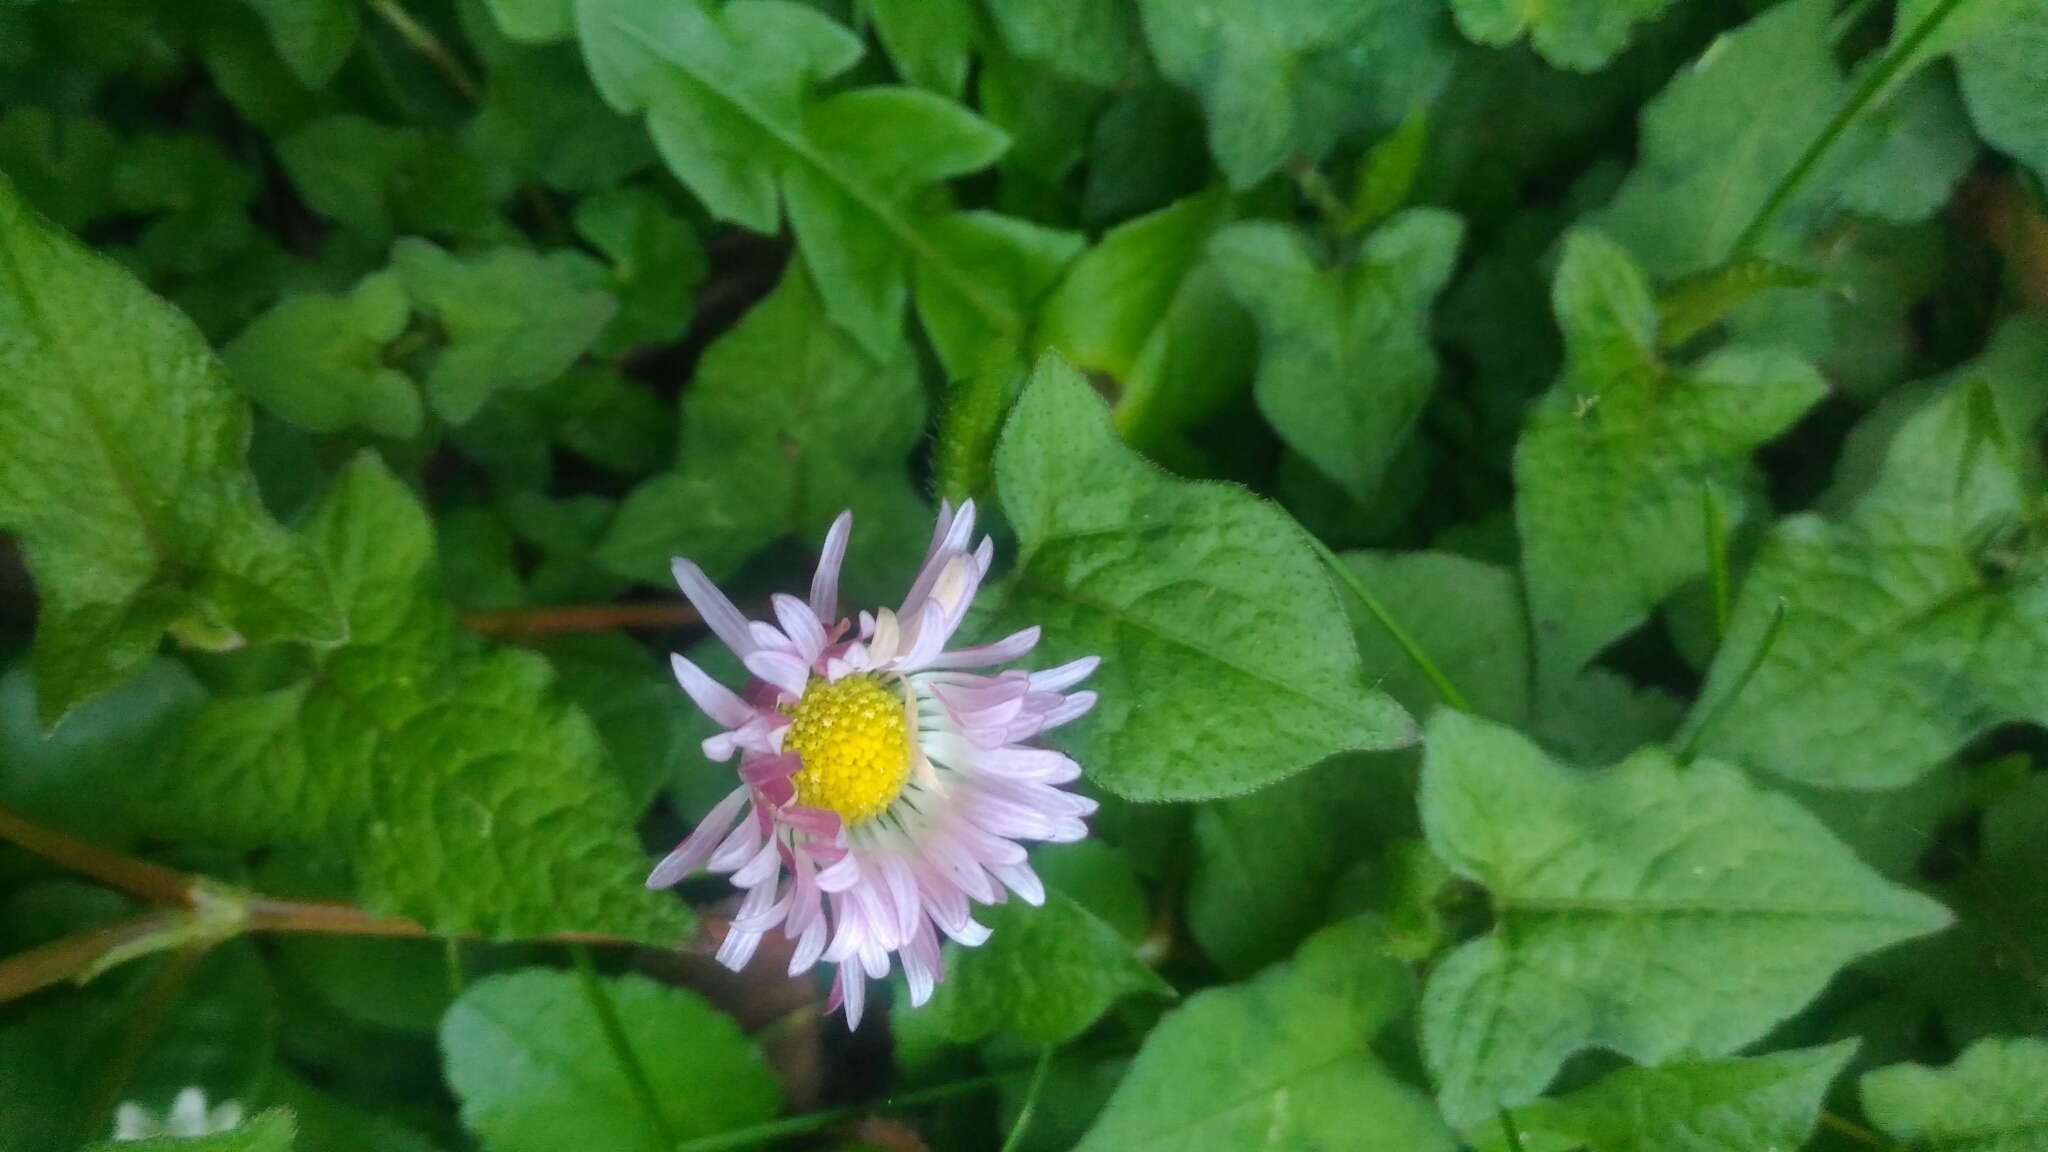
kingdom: Plantae
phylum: Tracheophyta
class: Magnoliopsida
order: Asterales
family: Asteraceae
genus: Bellis
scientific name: Bellis perennis
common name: Lawndaisy
